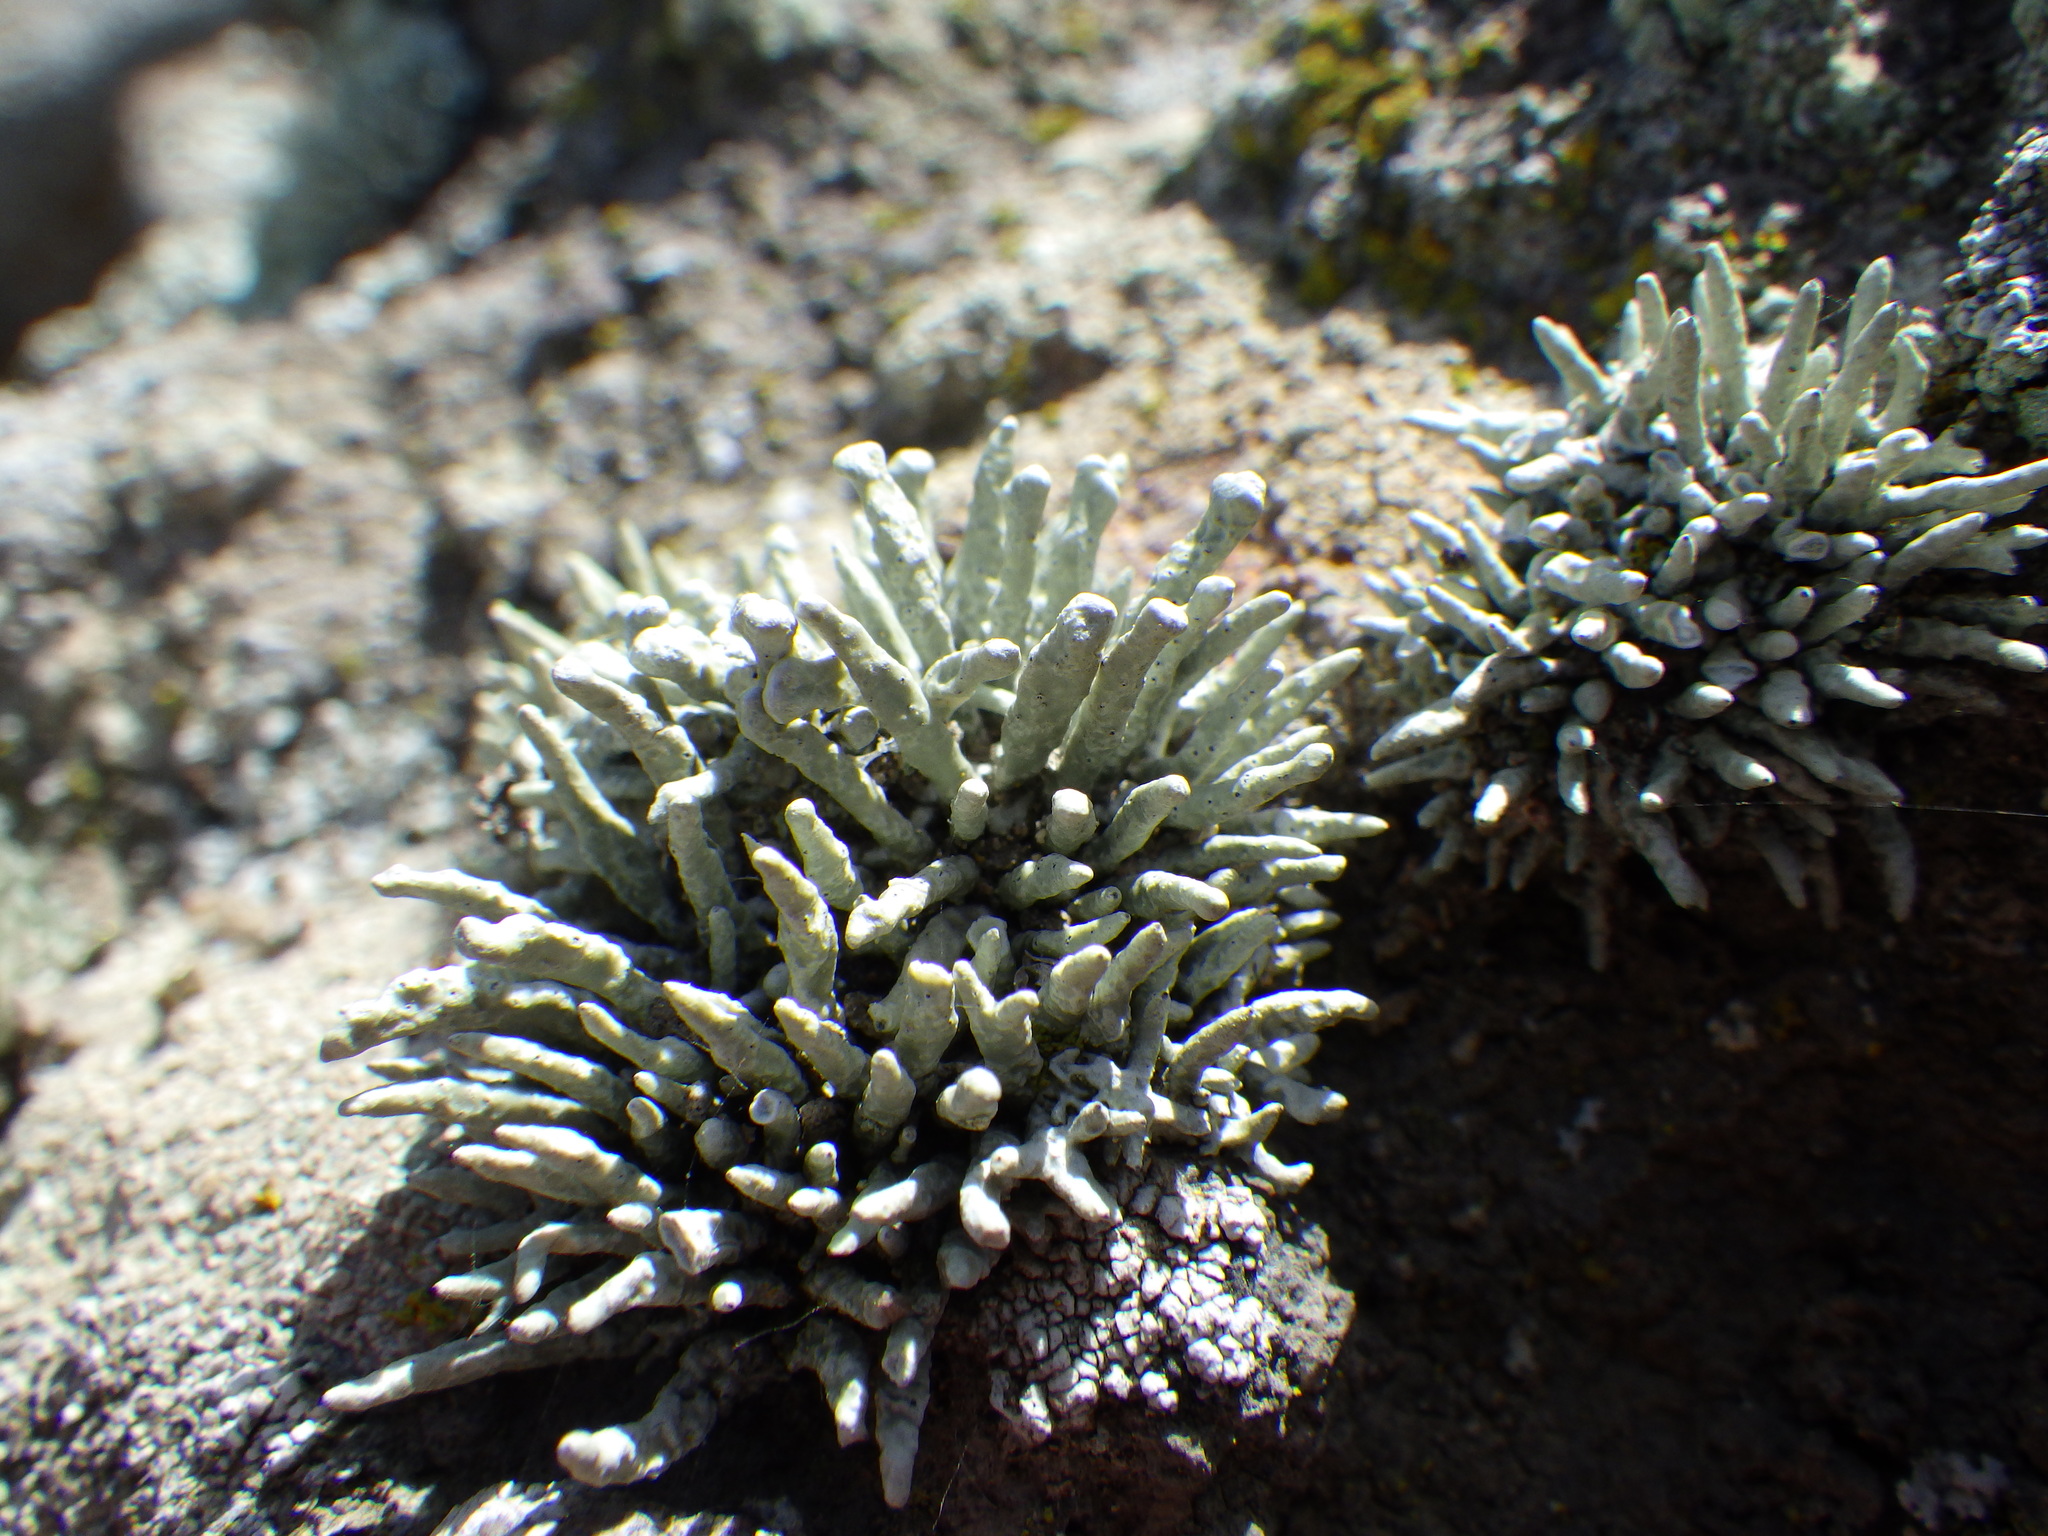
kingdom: Fungi
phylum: Ascomycota
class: Lecanoromycetes
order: Lecanorales
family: Ramalinaceae
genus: Niebla
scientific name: Niebla combeoides
